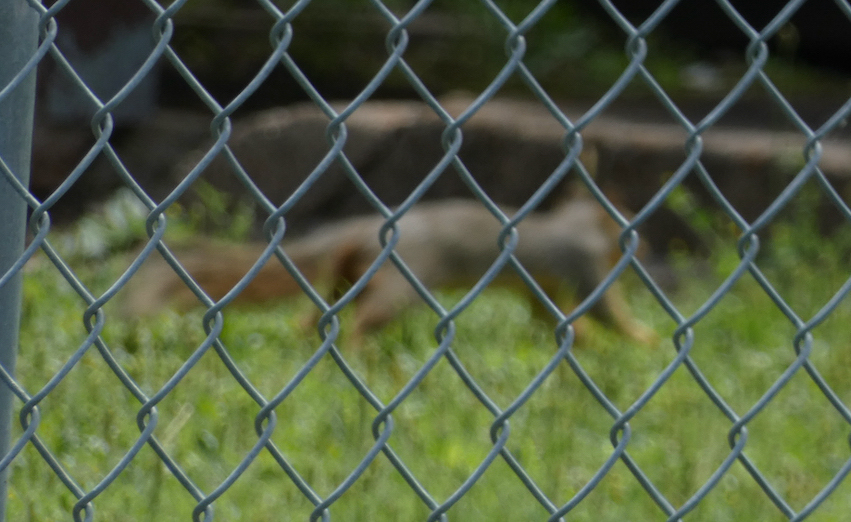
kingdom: Animalia
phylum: Chordata
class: Mammalia
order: Rodentia
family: Sciuridae
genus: Sciurus
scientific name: Sciurus niger
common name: Fox squirrel
